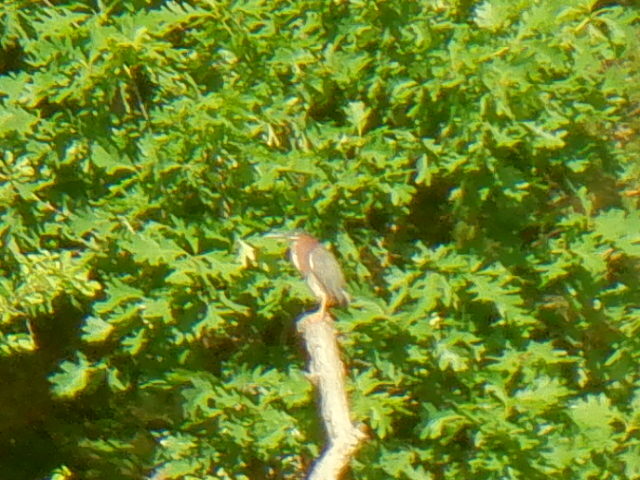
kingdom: Animalia
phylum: Chordata
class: Aves
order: Pelecaniformes
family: Ardeidae
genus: Butorides
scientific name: Butorides virescens
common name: Green heron
